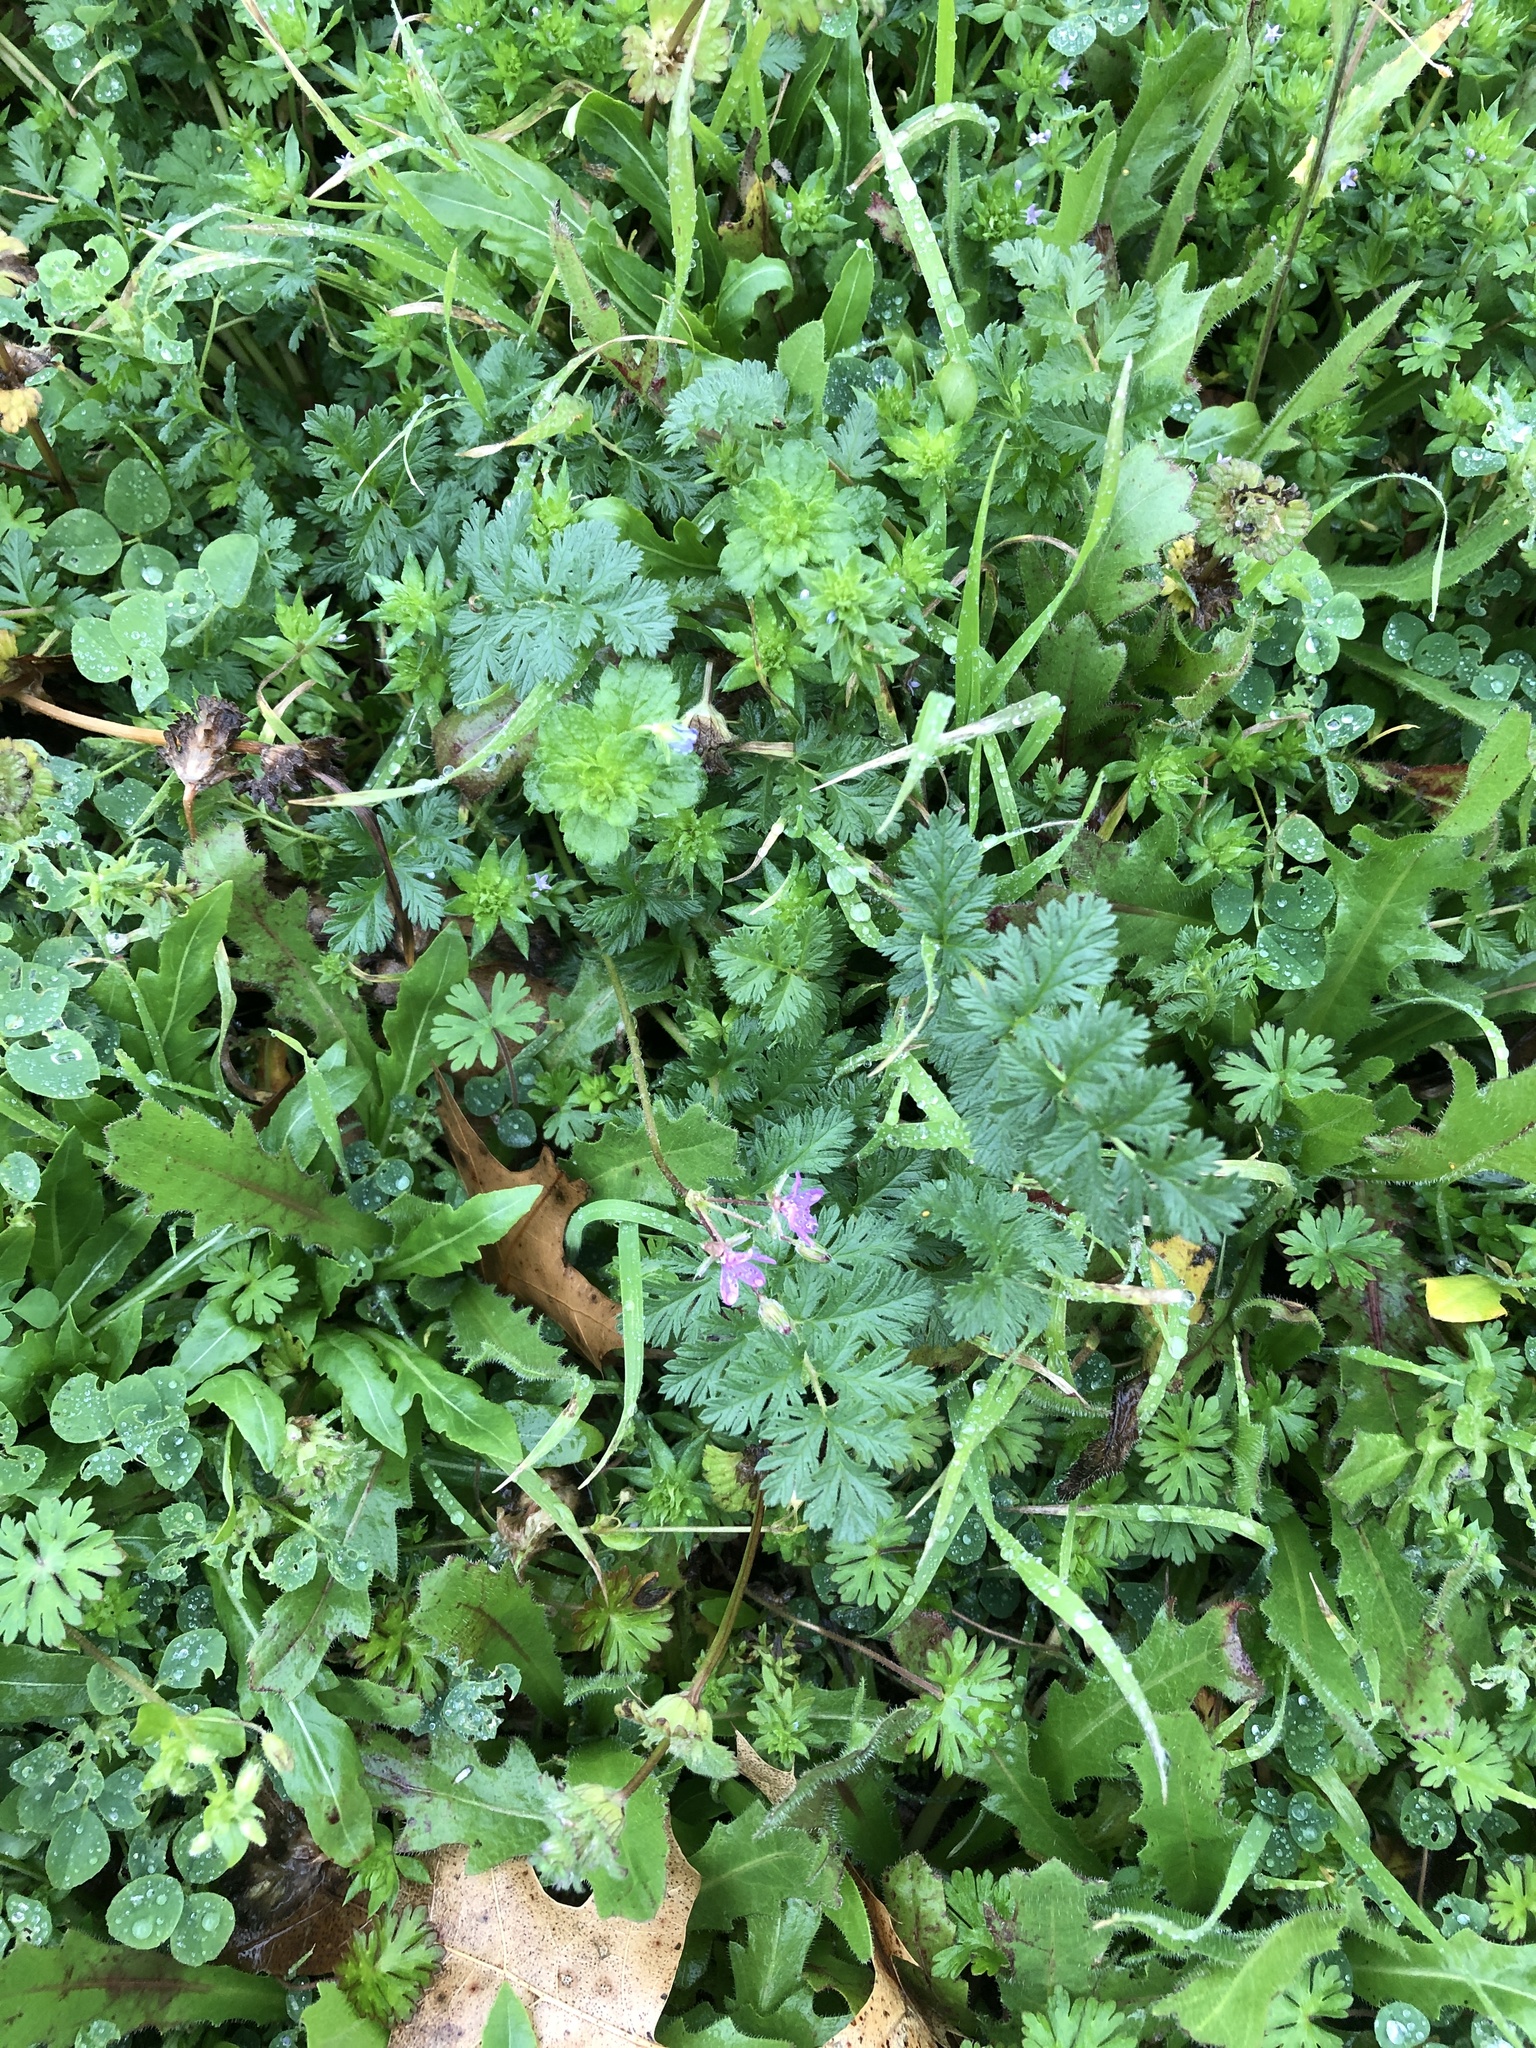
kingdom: Plantae
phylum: Tracheophyta
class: Magnoliopsida
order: Geraniales
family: Geraniaceae
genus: Erodium
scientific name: Erodium cicutarium
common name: Common stork's-bill
